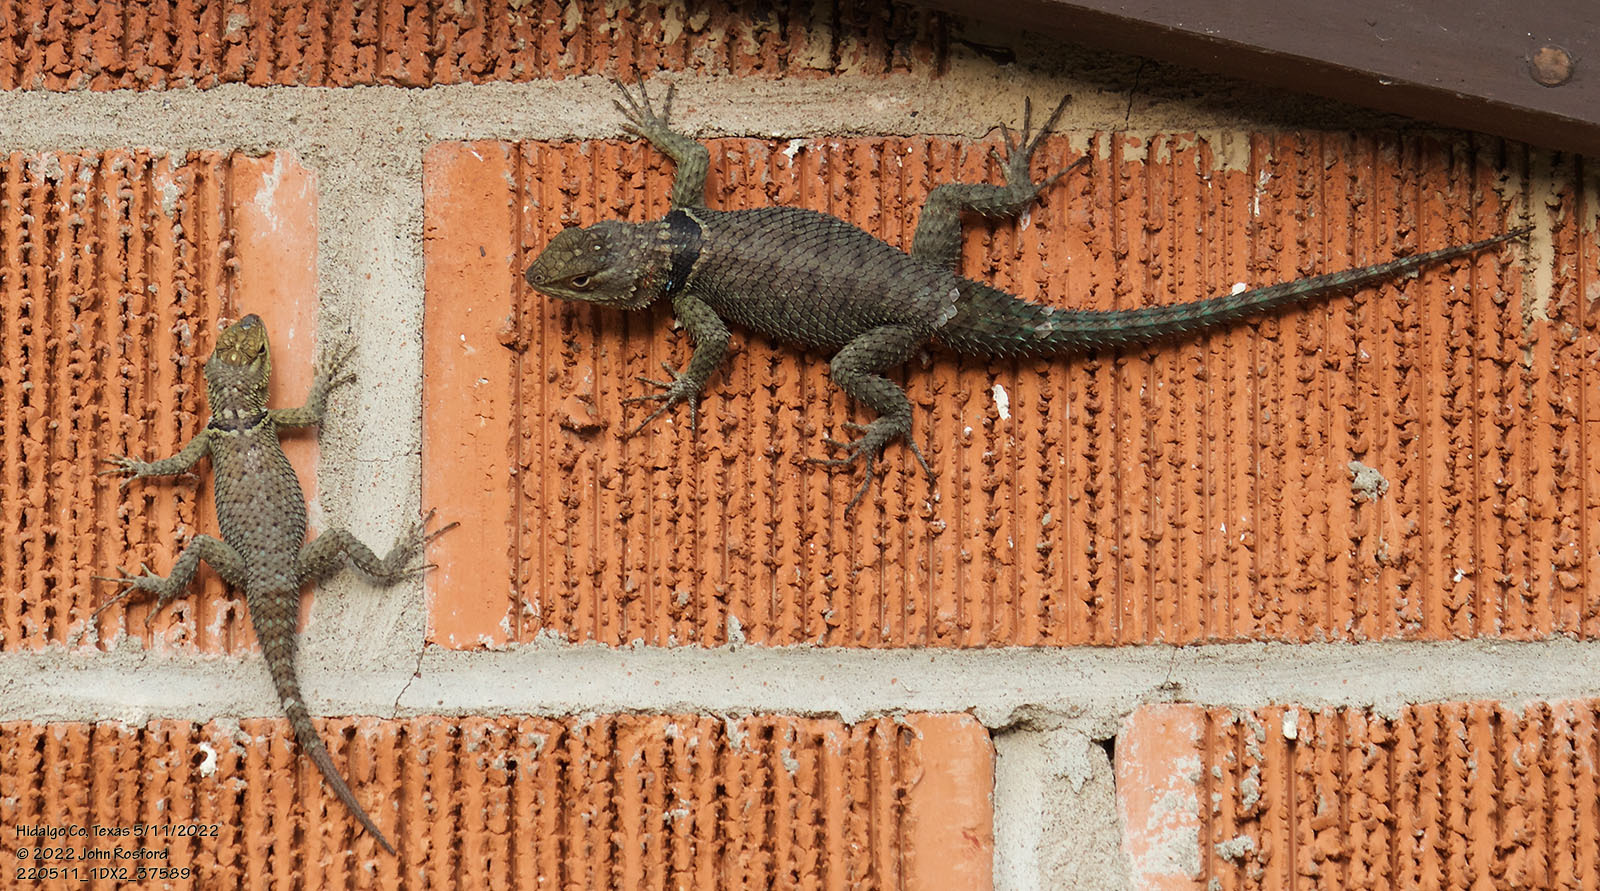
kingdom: Animalia
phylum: Chordata
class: Squamata
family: Phrynosomatidae
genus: Sceloporus
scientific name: Sceloporus cyanogenys
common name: Blue spiny lizard
